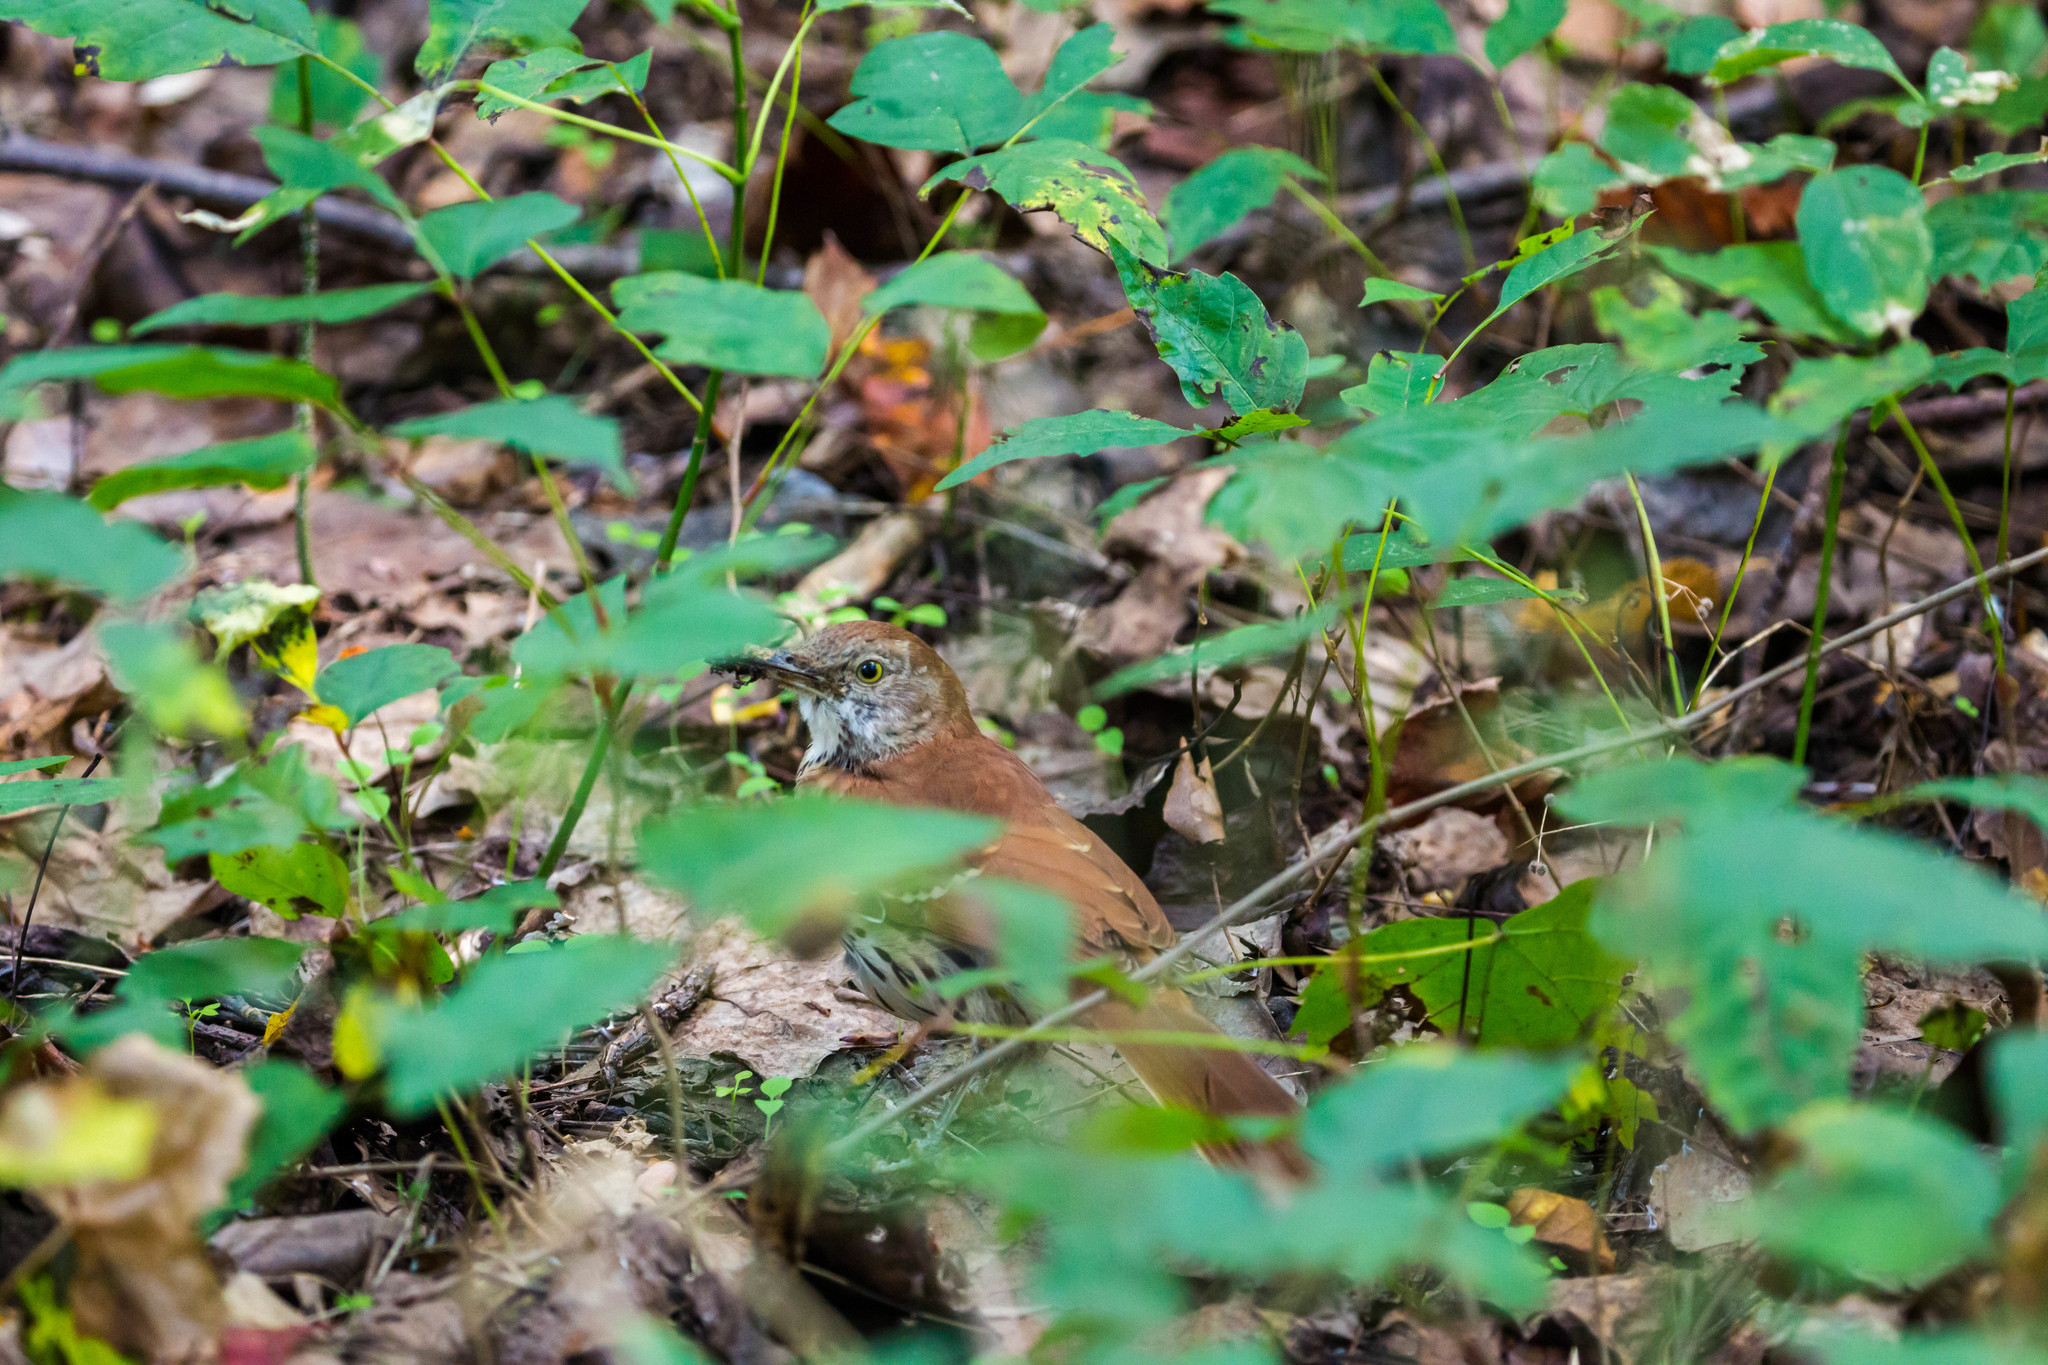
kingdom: Animalia
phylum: Chordata
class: Aves
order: Passeriformes
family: Mimidae
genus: Toxostoma
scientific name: Toxostoma rufum
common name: Brown thrasher
